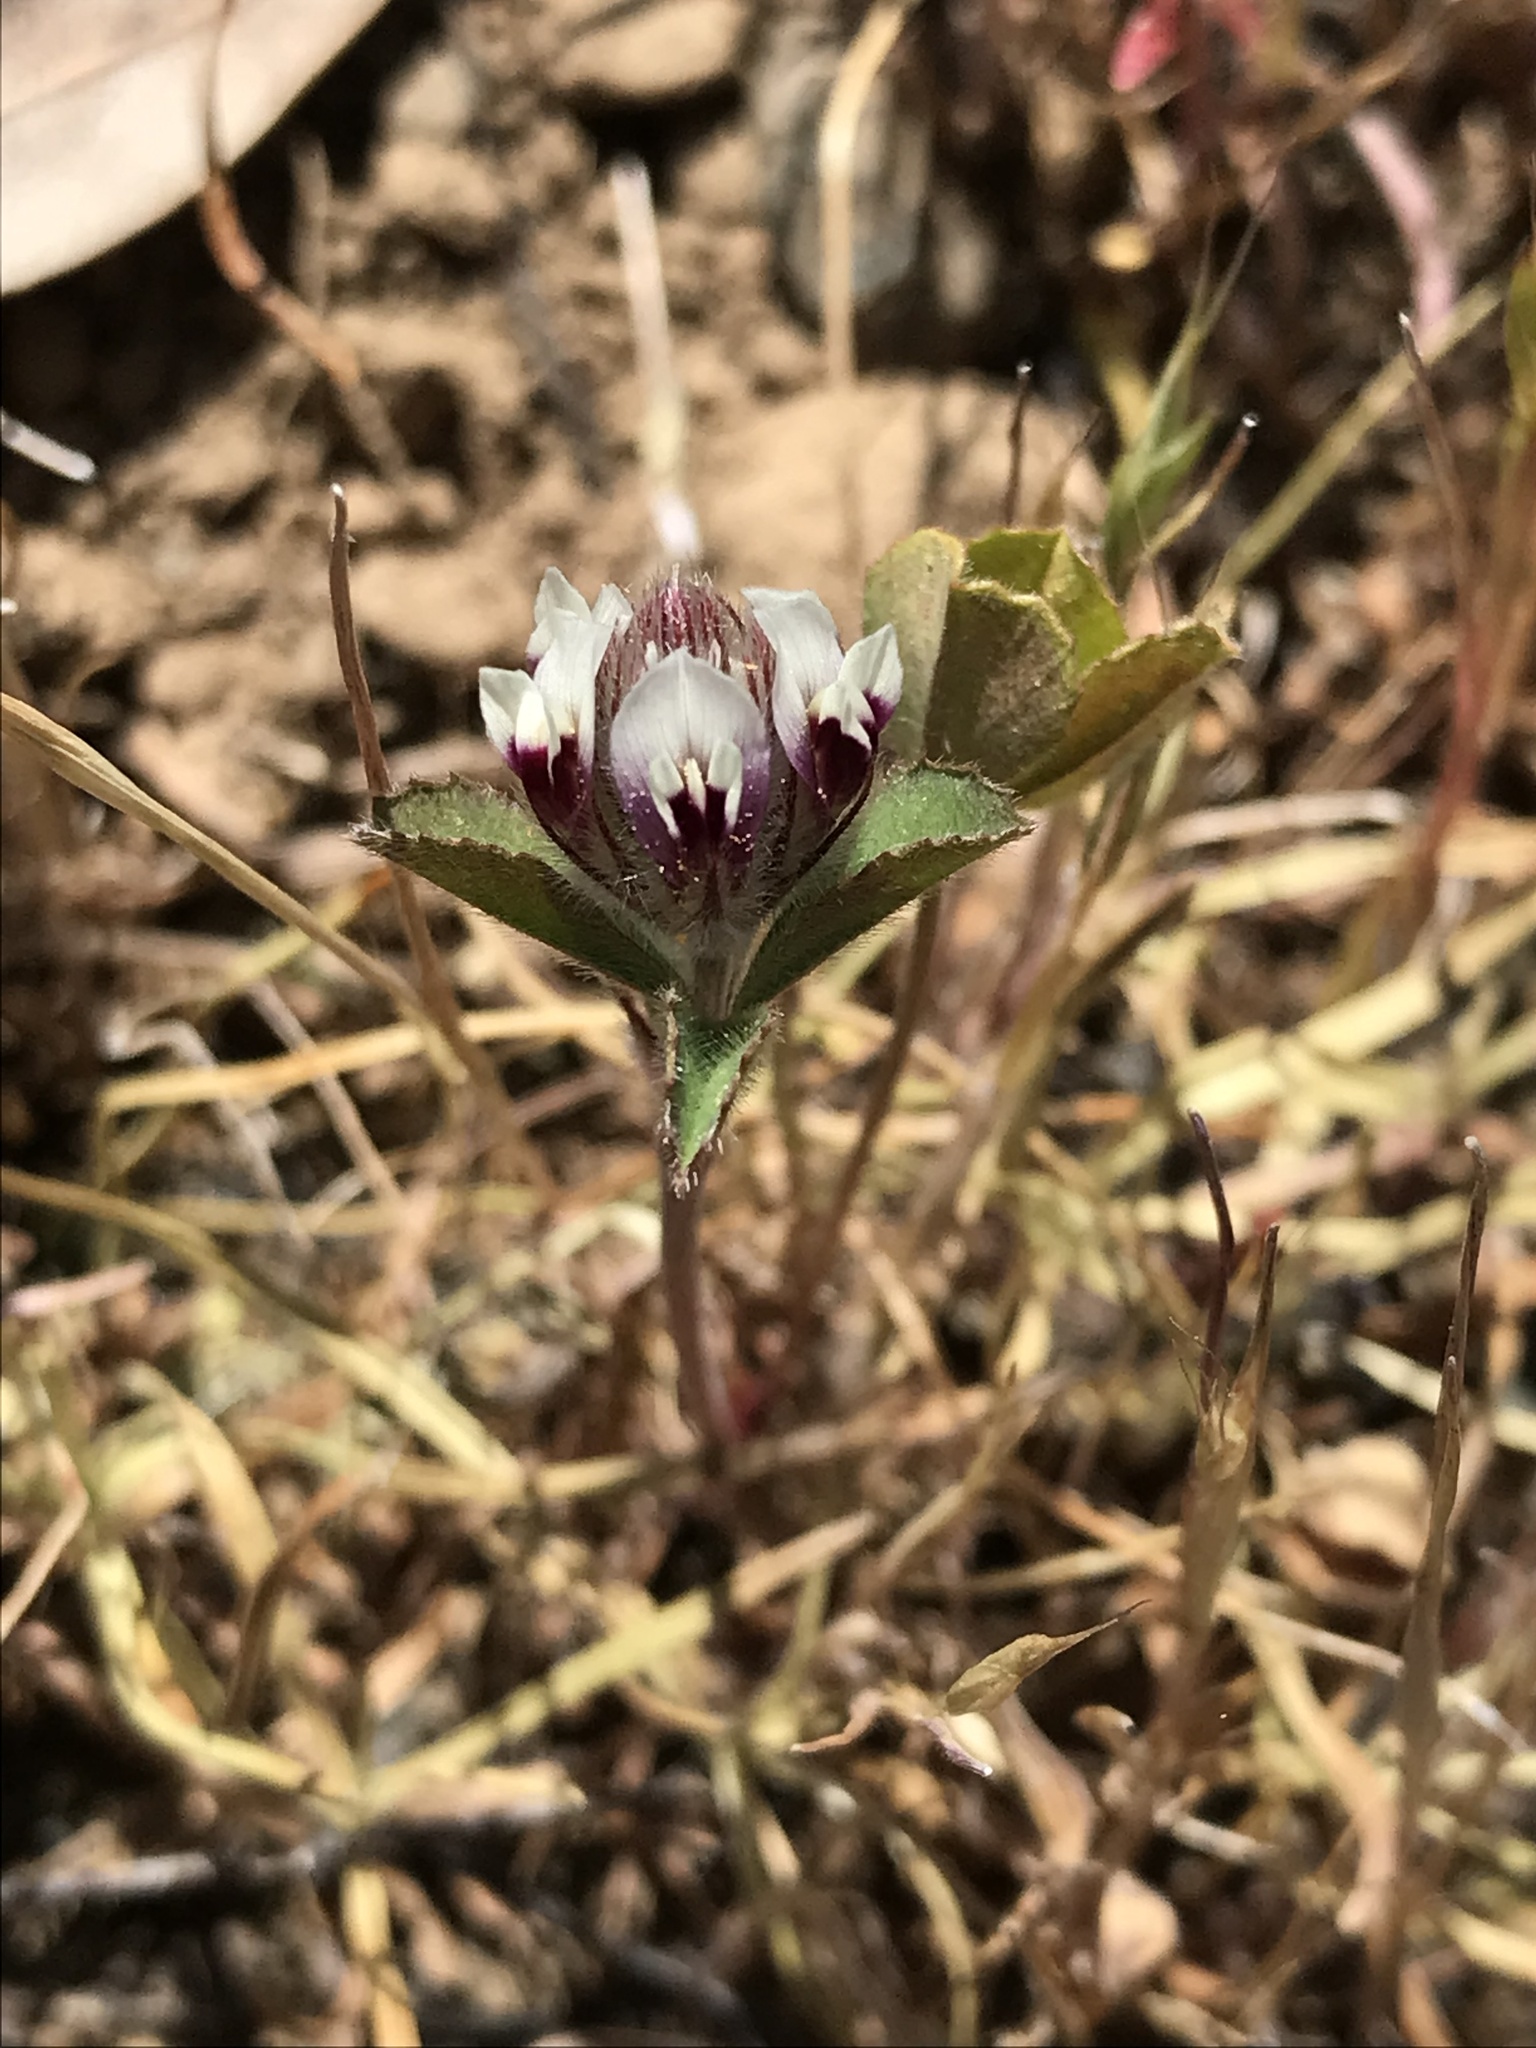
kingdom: Plantae
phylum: Tracheophyta
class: Magnoliopsida
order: Fabales
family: Fabaceae
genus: Trifolium
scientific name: Trifolium dichotomum
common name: Branched indian clover
